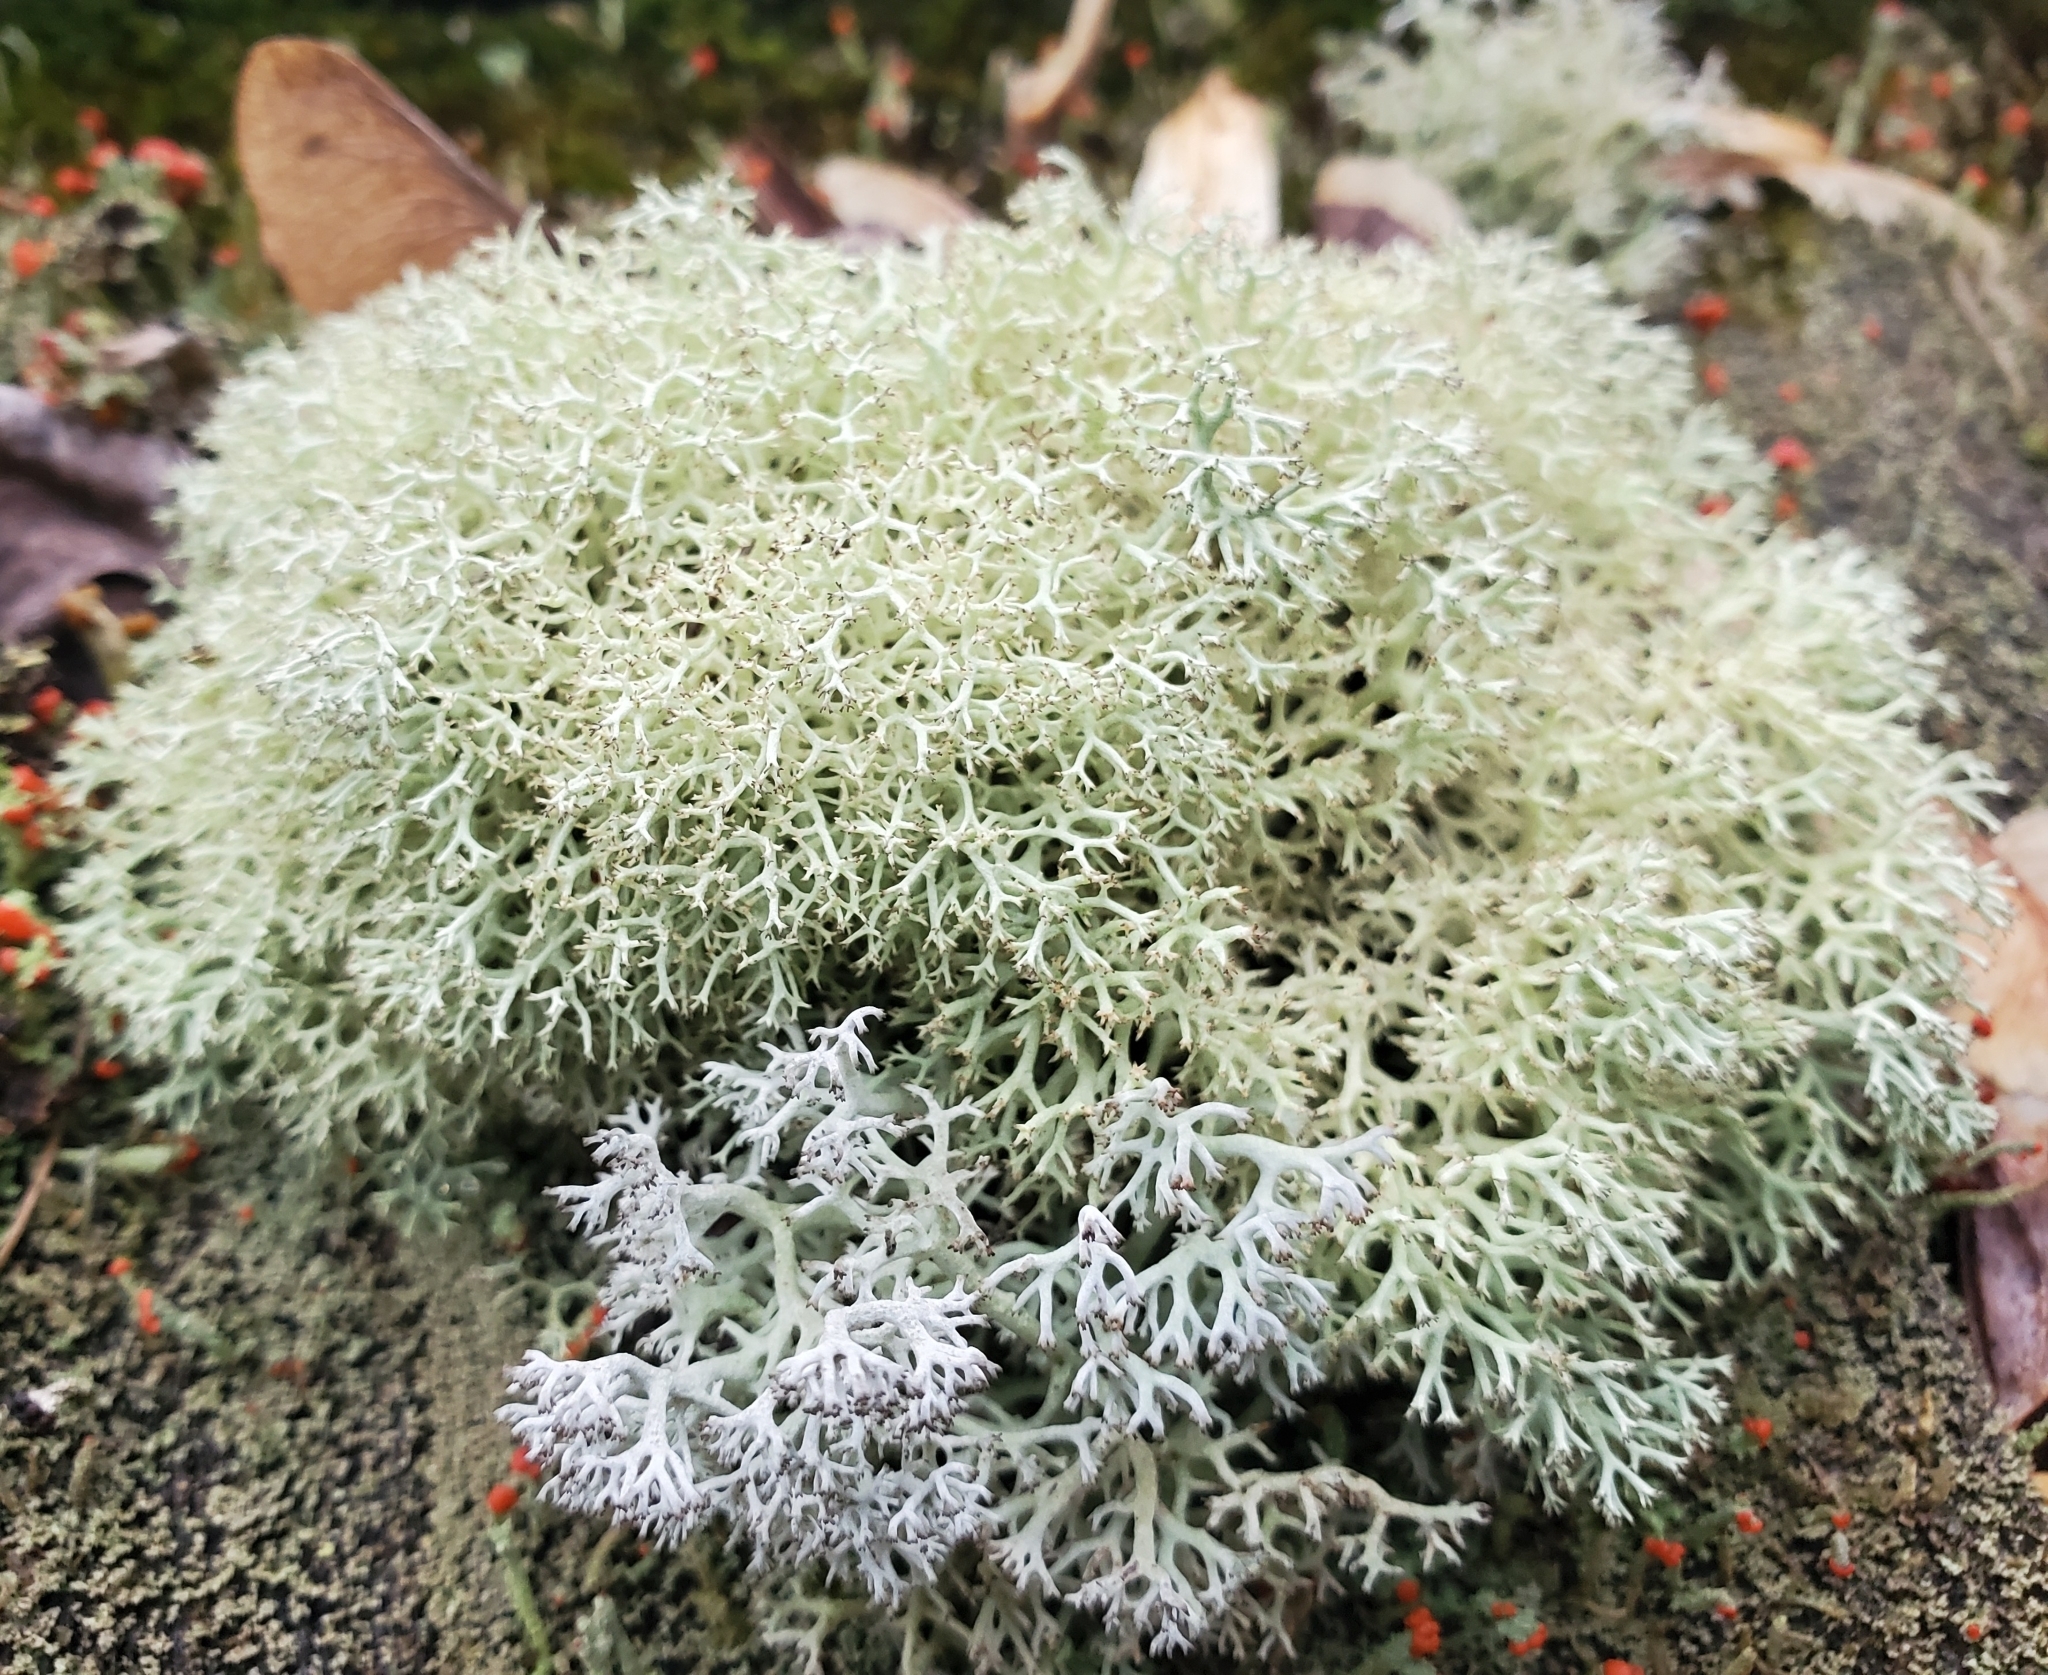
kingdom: Fungi
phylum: Ascomycota
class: Lecanoromycetes
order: Lecanorales
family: Cladoniaceae
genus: Cladonia
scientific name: Cladonia rangiferina
